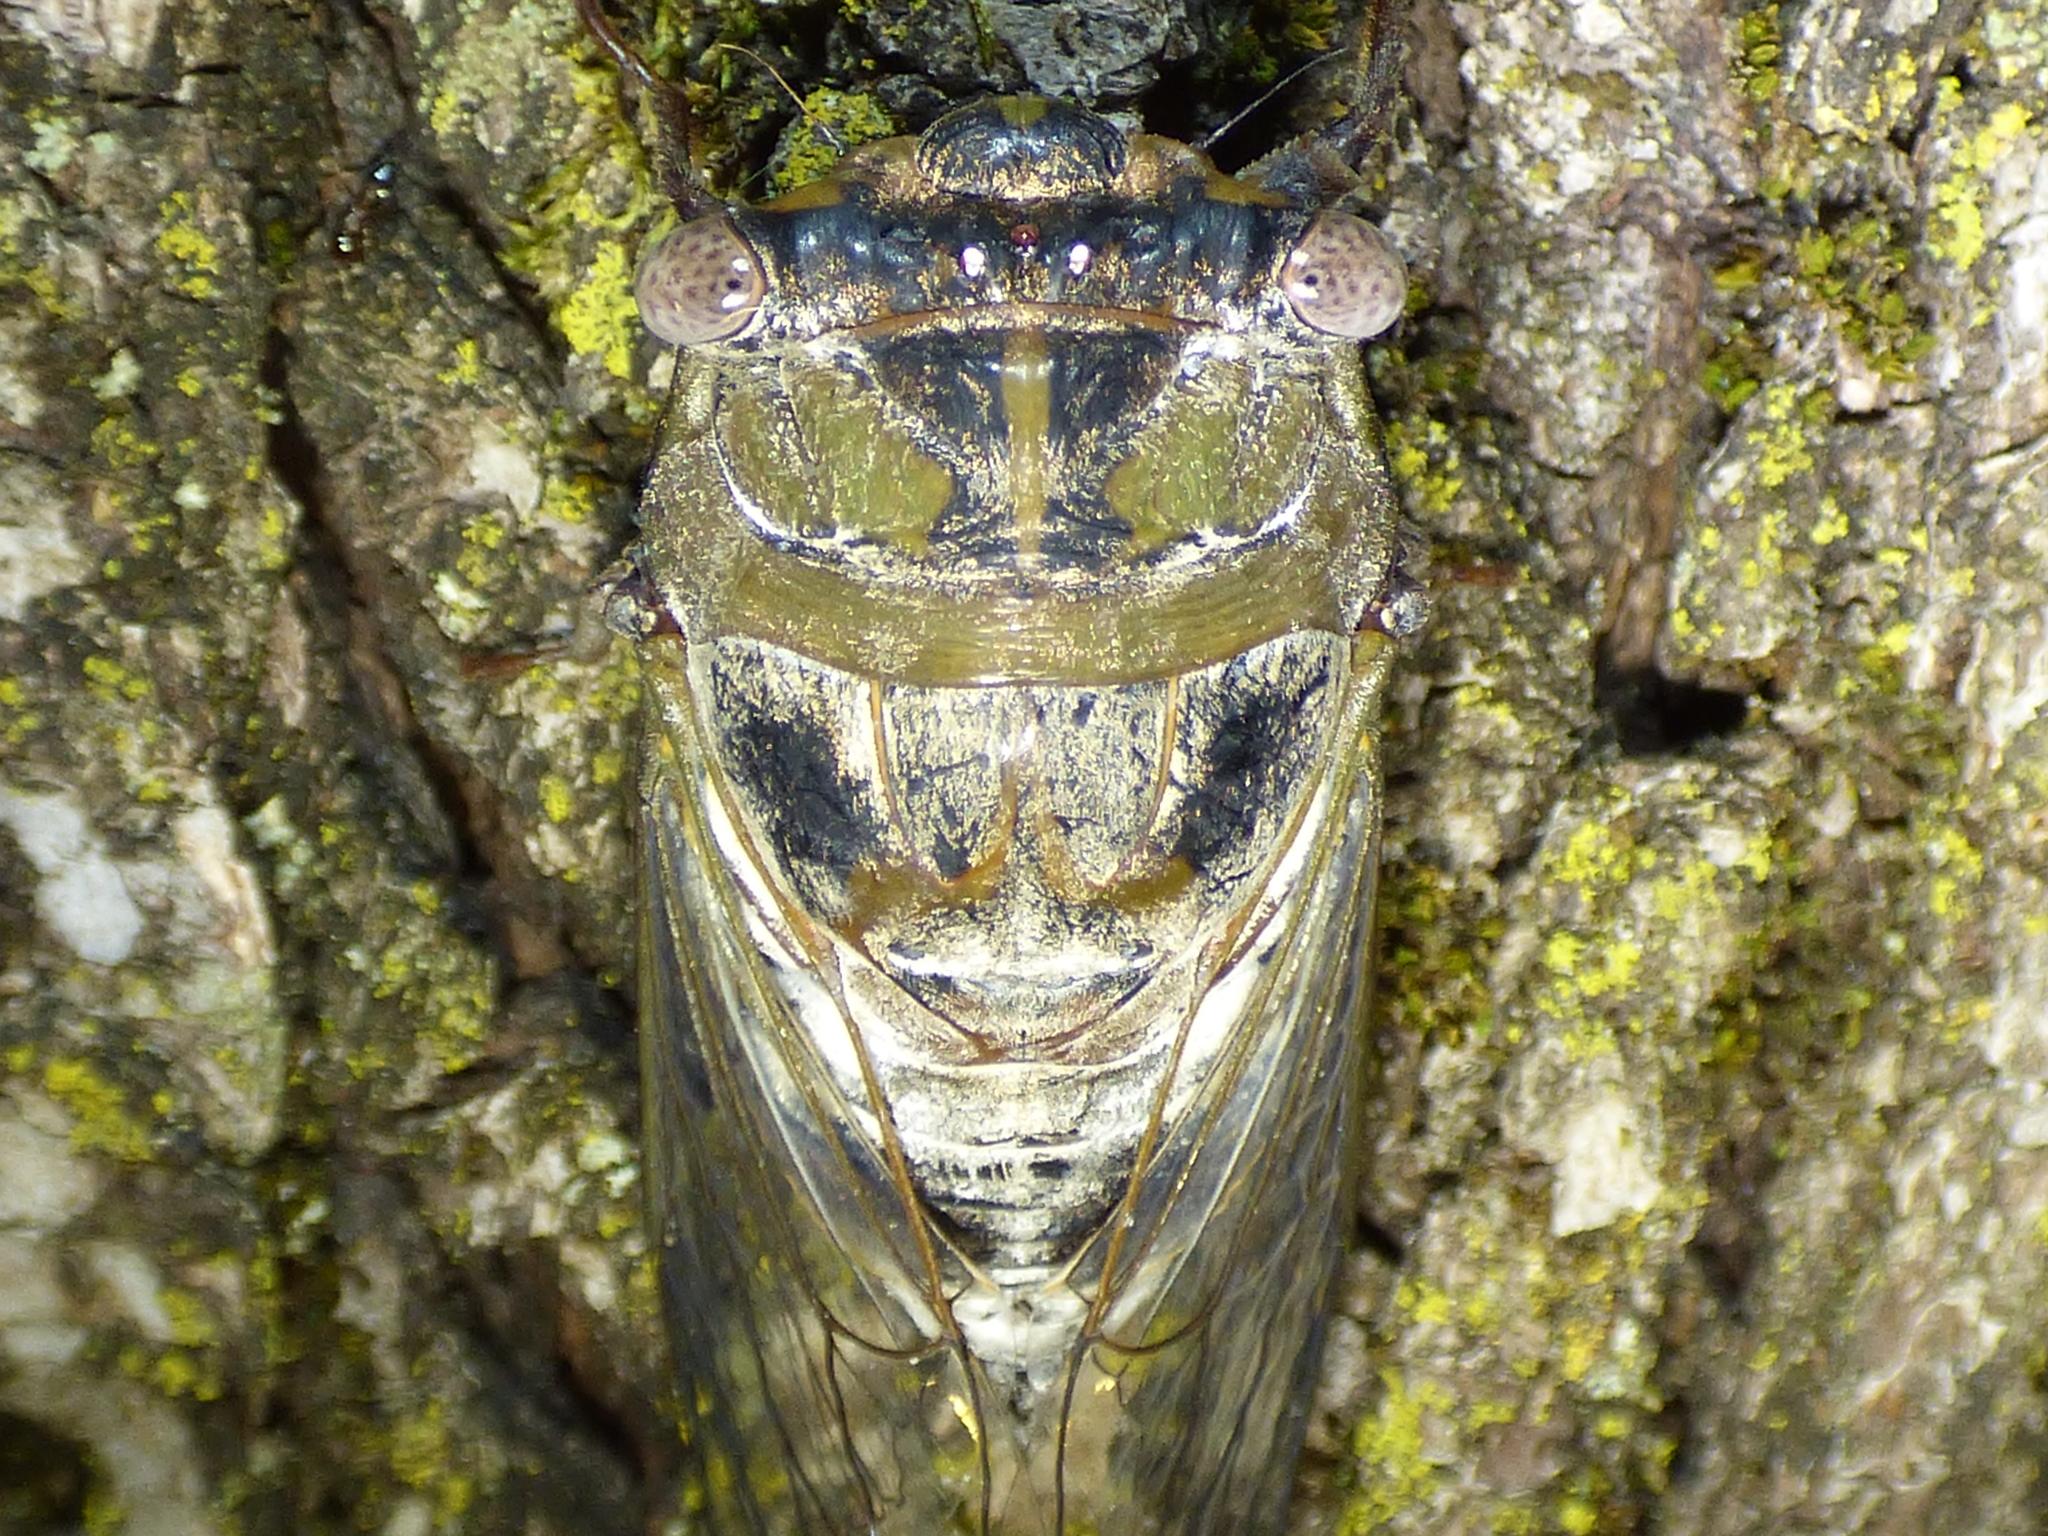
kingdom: Animalia
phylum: Arthropoda
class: Insecta
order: Hemiptera
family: Cicadidae
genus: Diceroprocta
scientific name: Diceroprocta grossa
